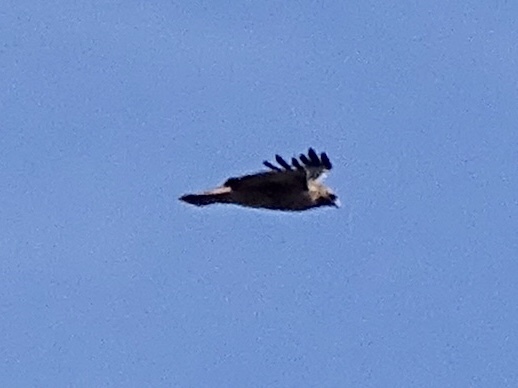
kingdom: Animalia
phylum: Chordata
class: Aves
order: Accipitriformes
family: Accipitridae
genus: Buteo
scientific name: Buteo jamaicensis
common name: Red-tailed hawk
